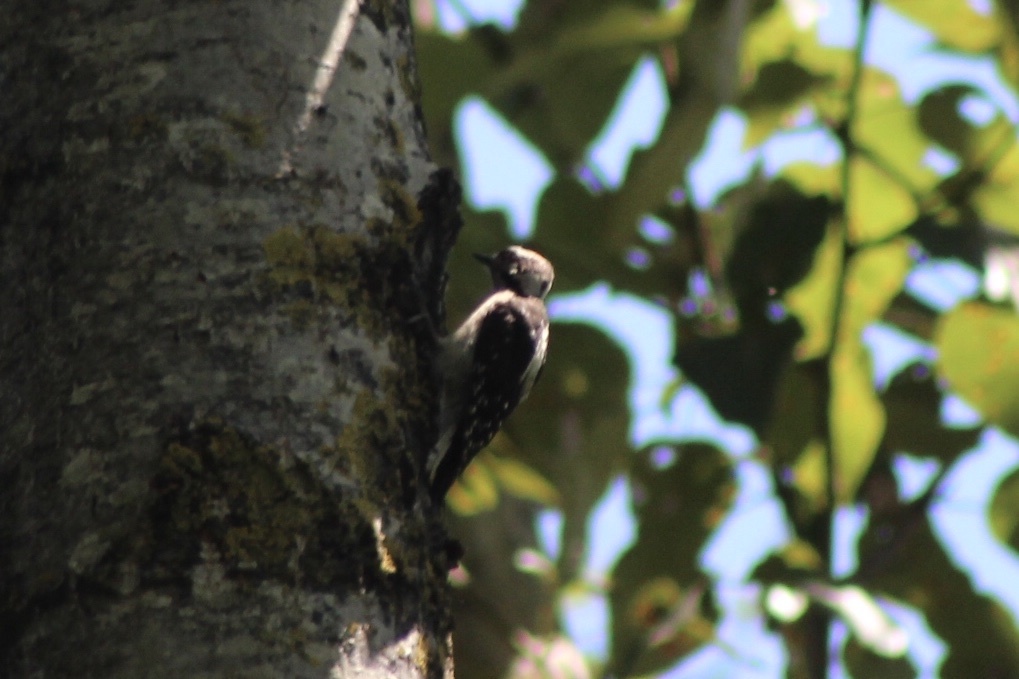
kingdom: Animalia
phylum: Chordata
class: Aves
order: Piciformes
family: Picidae
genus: Dryobates
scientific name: Dryobates pubescens
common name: Downy woodpecker
